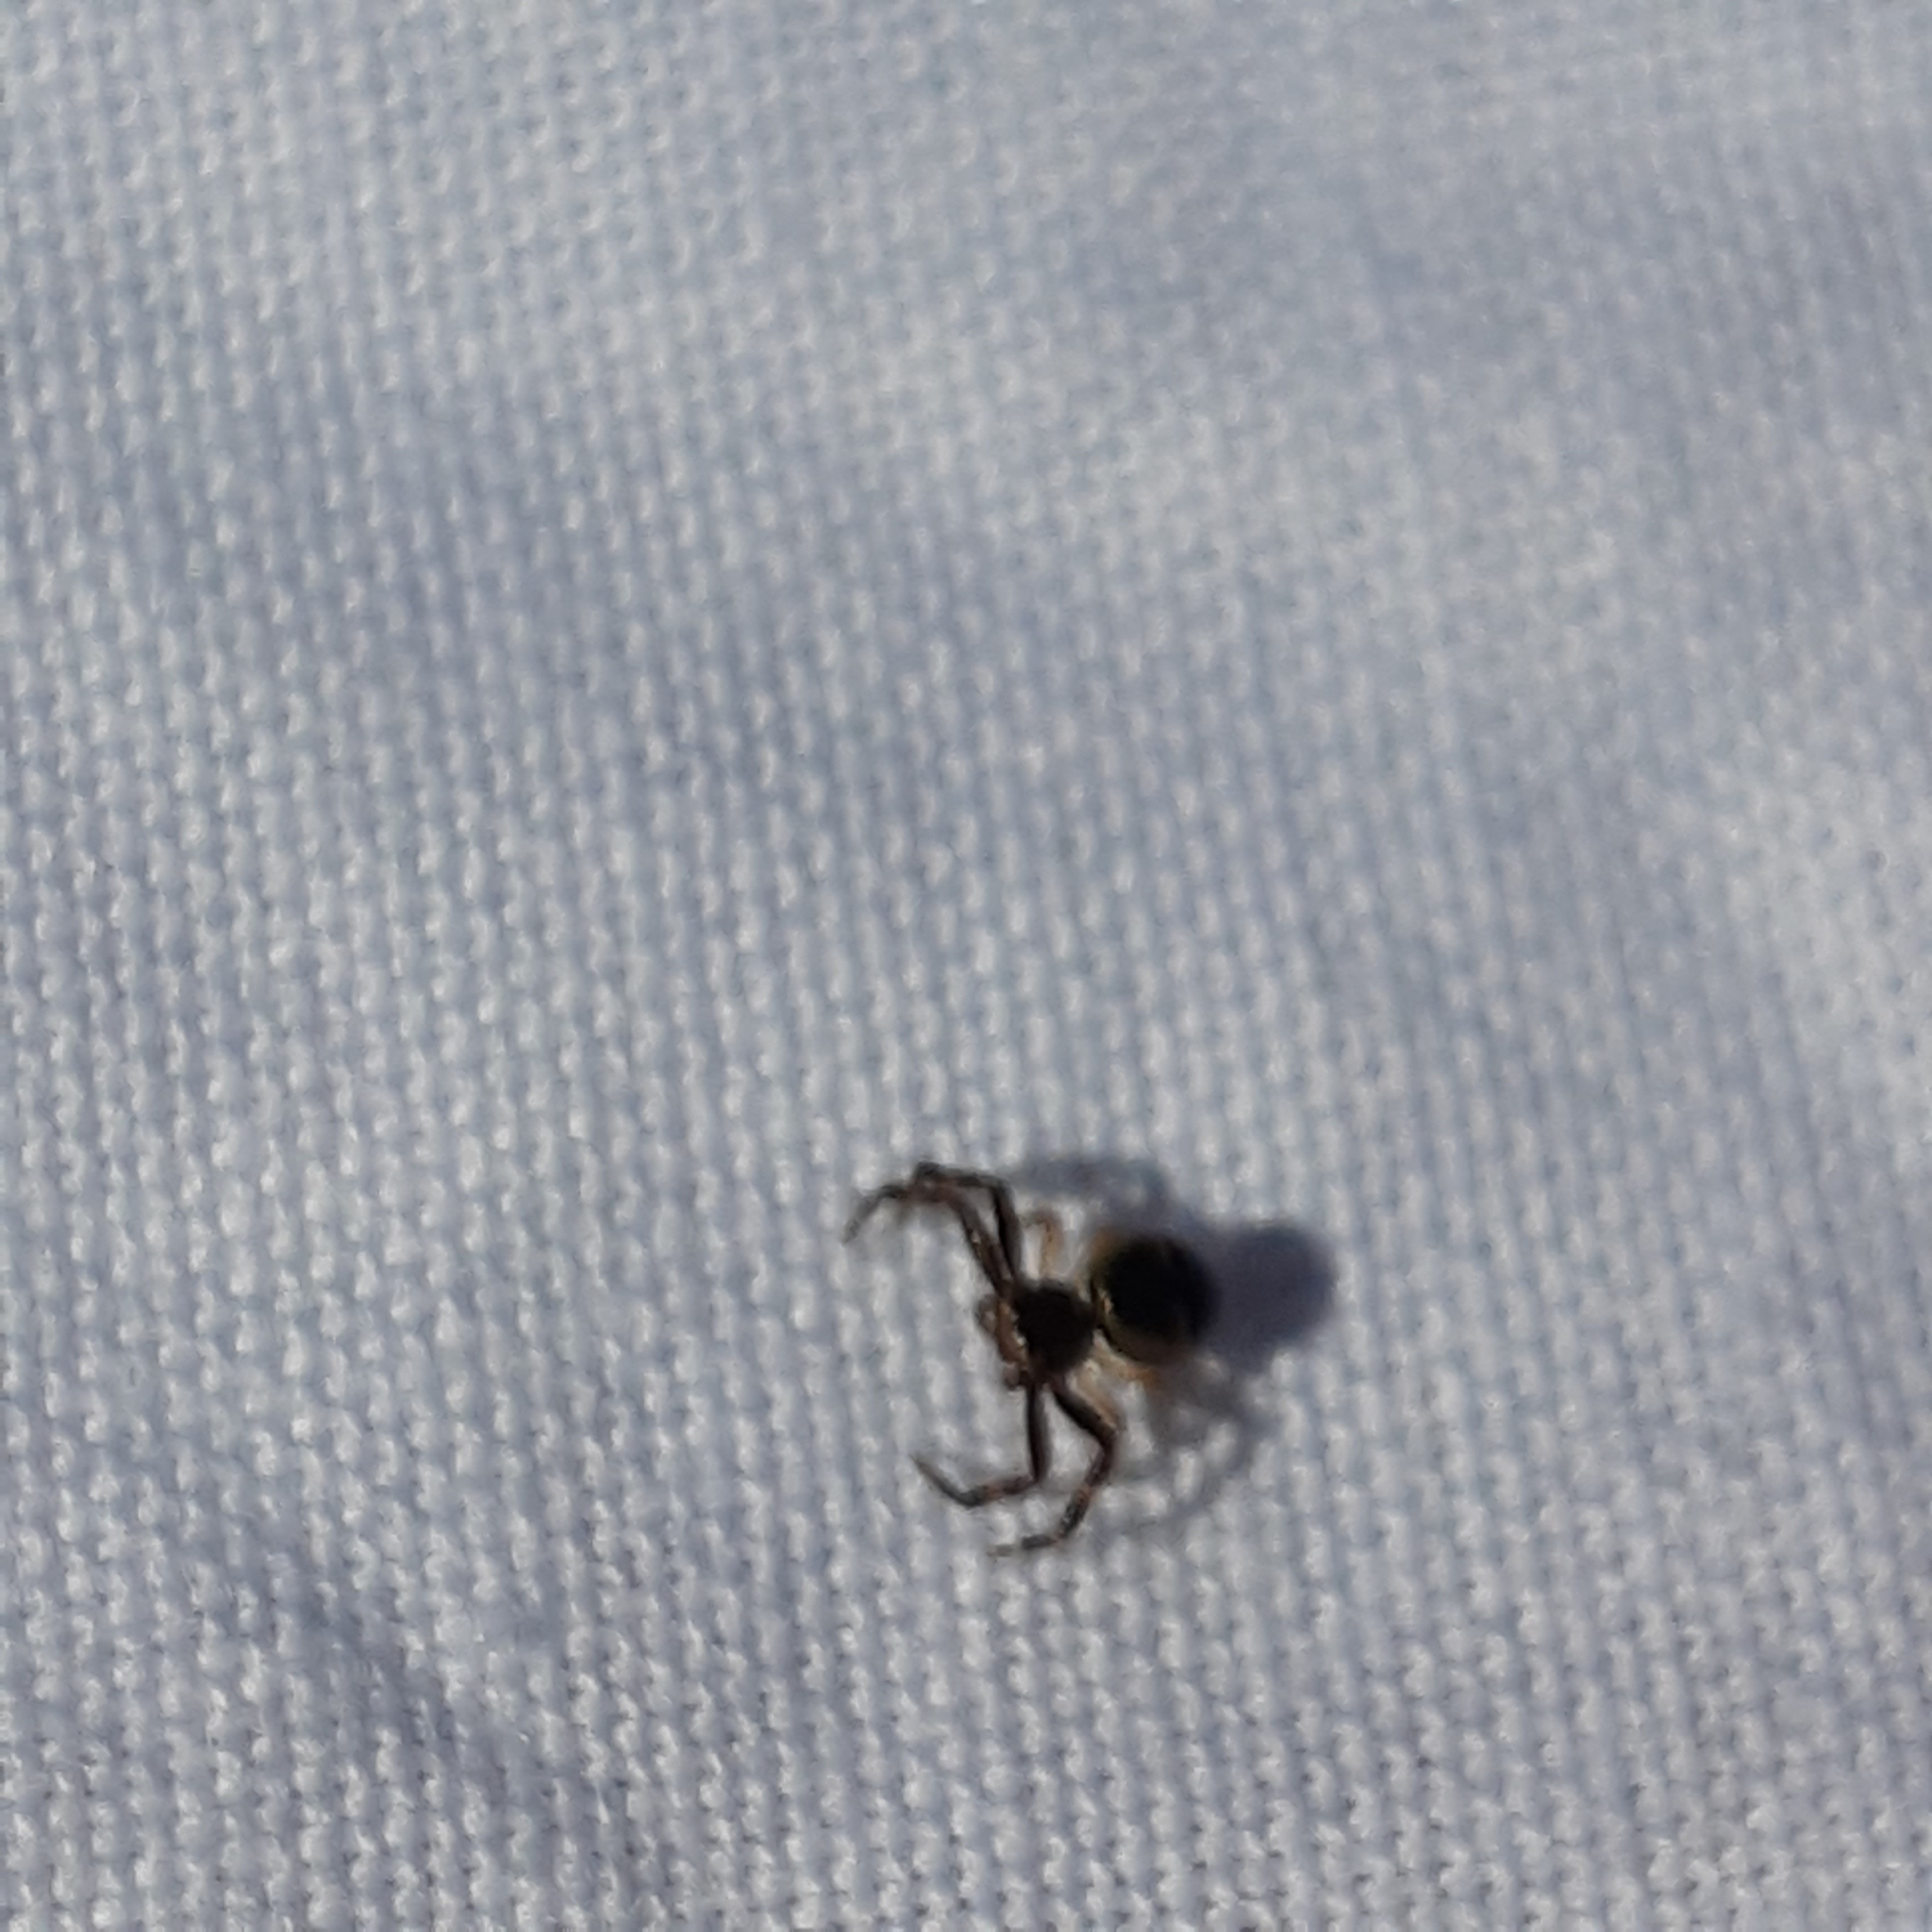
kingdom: Animalia
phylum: Arthropoda
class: Arachnida
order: Araneae
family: Thomisidae
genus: Synema
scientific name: Synema globosum
